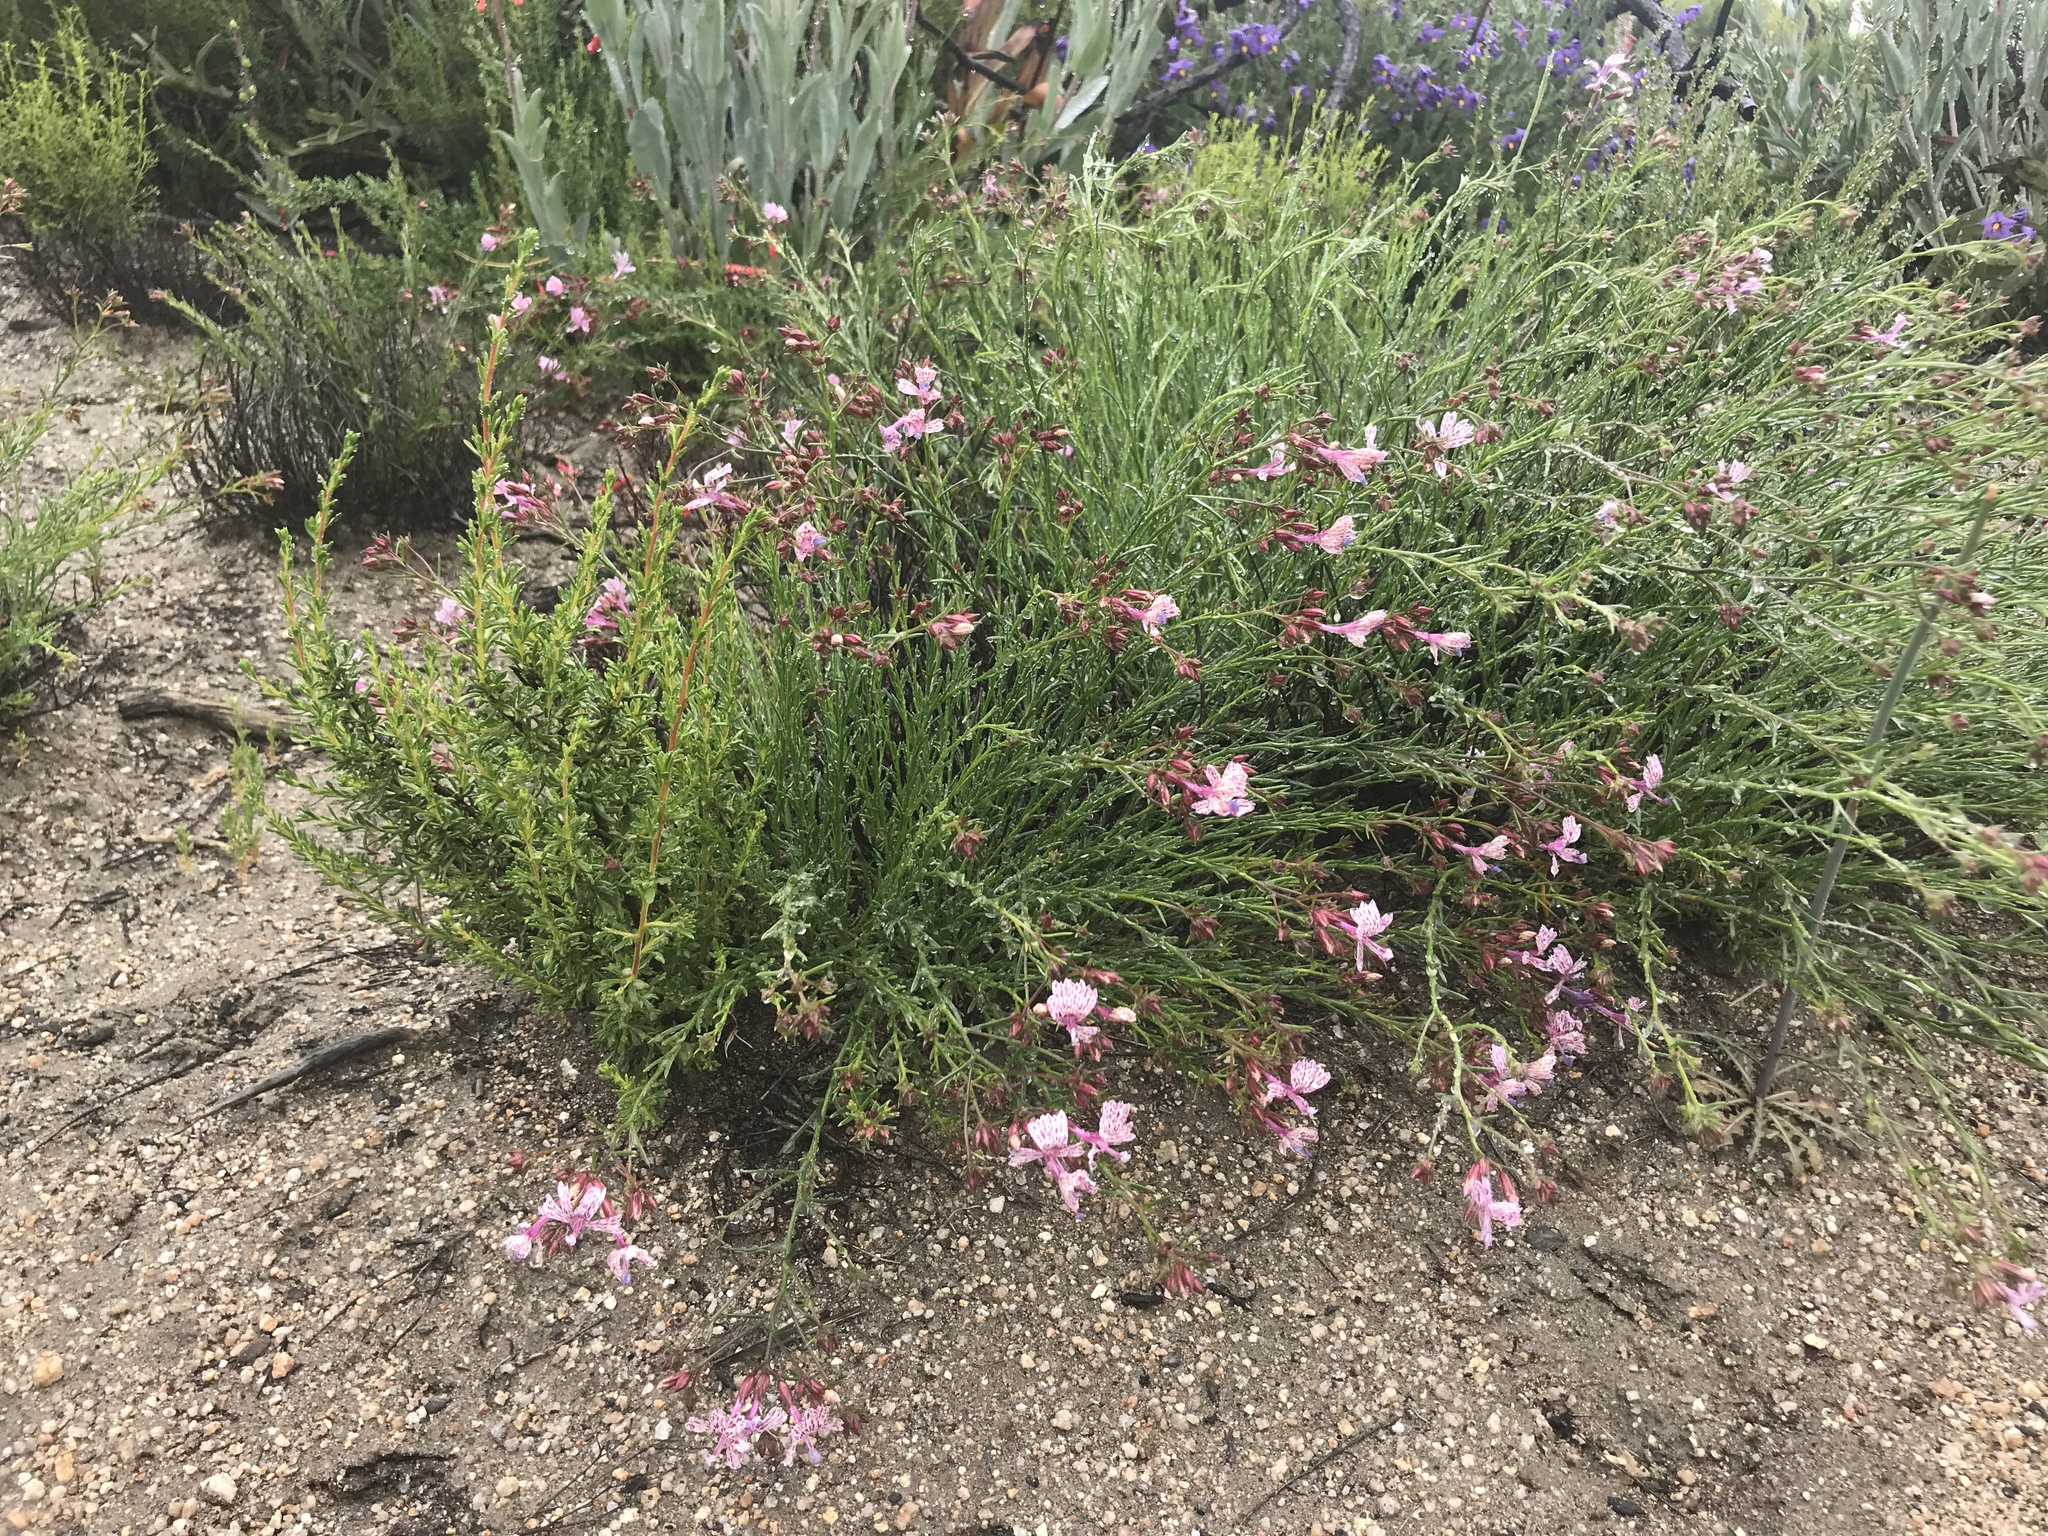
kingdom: Plantae
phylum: Tracheophyta
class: Magnoliopsida
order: Ericales
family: Polemoniaceae
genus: Ipomopsis
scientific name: Ipomopsis guttata
